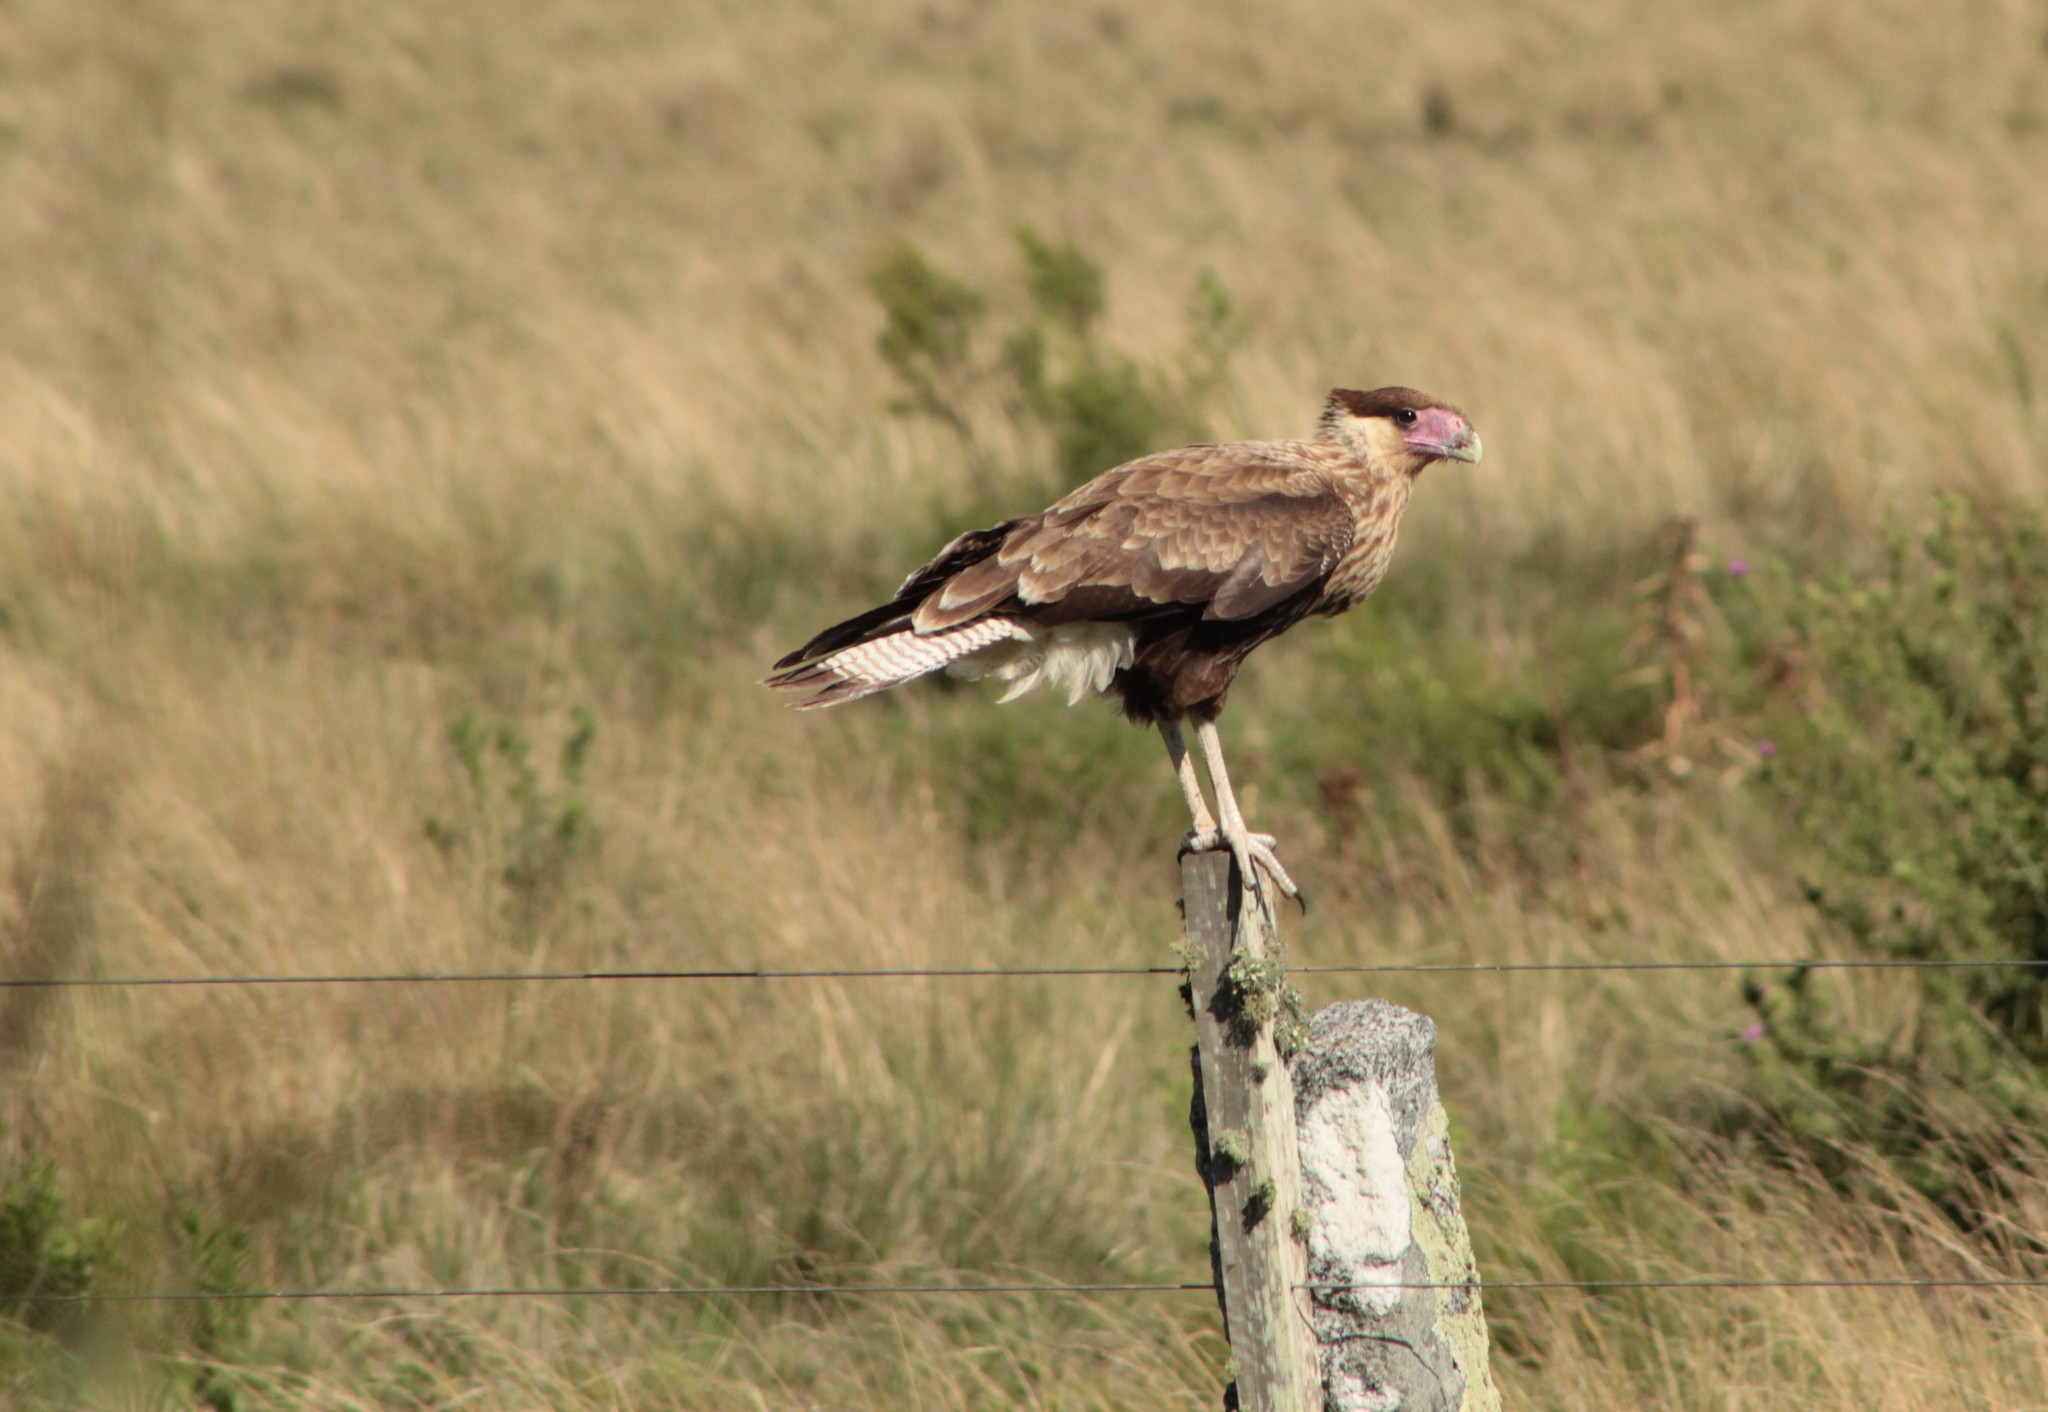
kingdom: Animalia
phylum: Chordata
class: Aves
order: Falconiformes
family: Falconidae
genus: Caracara
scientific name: Caracara plancus
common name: Southern caracara
